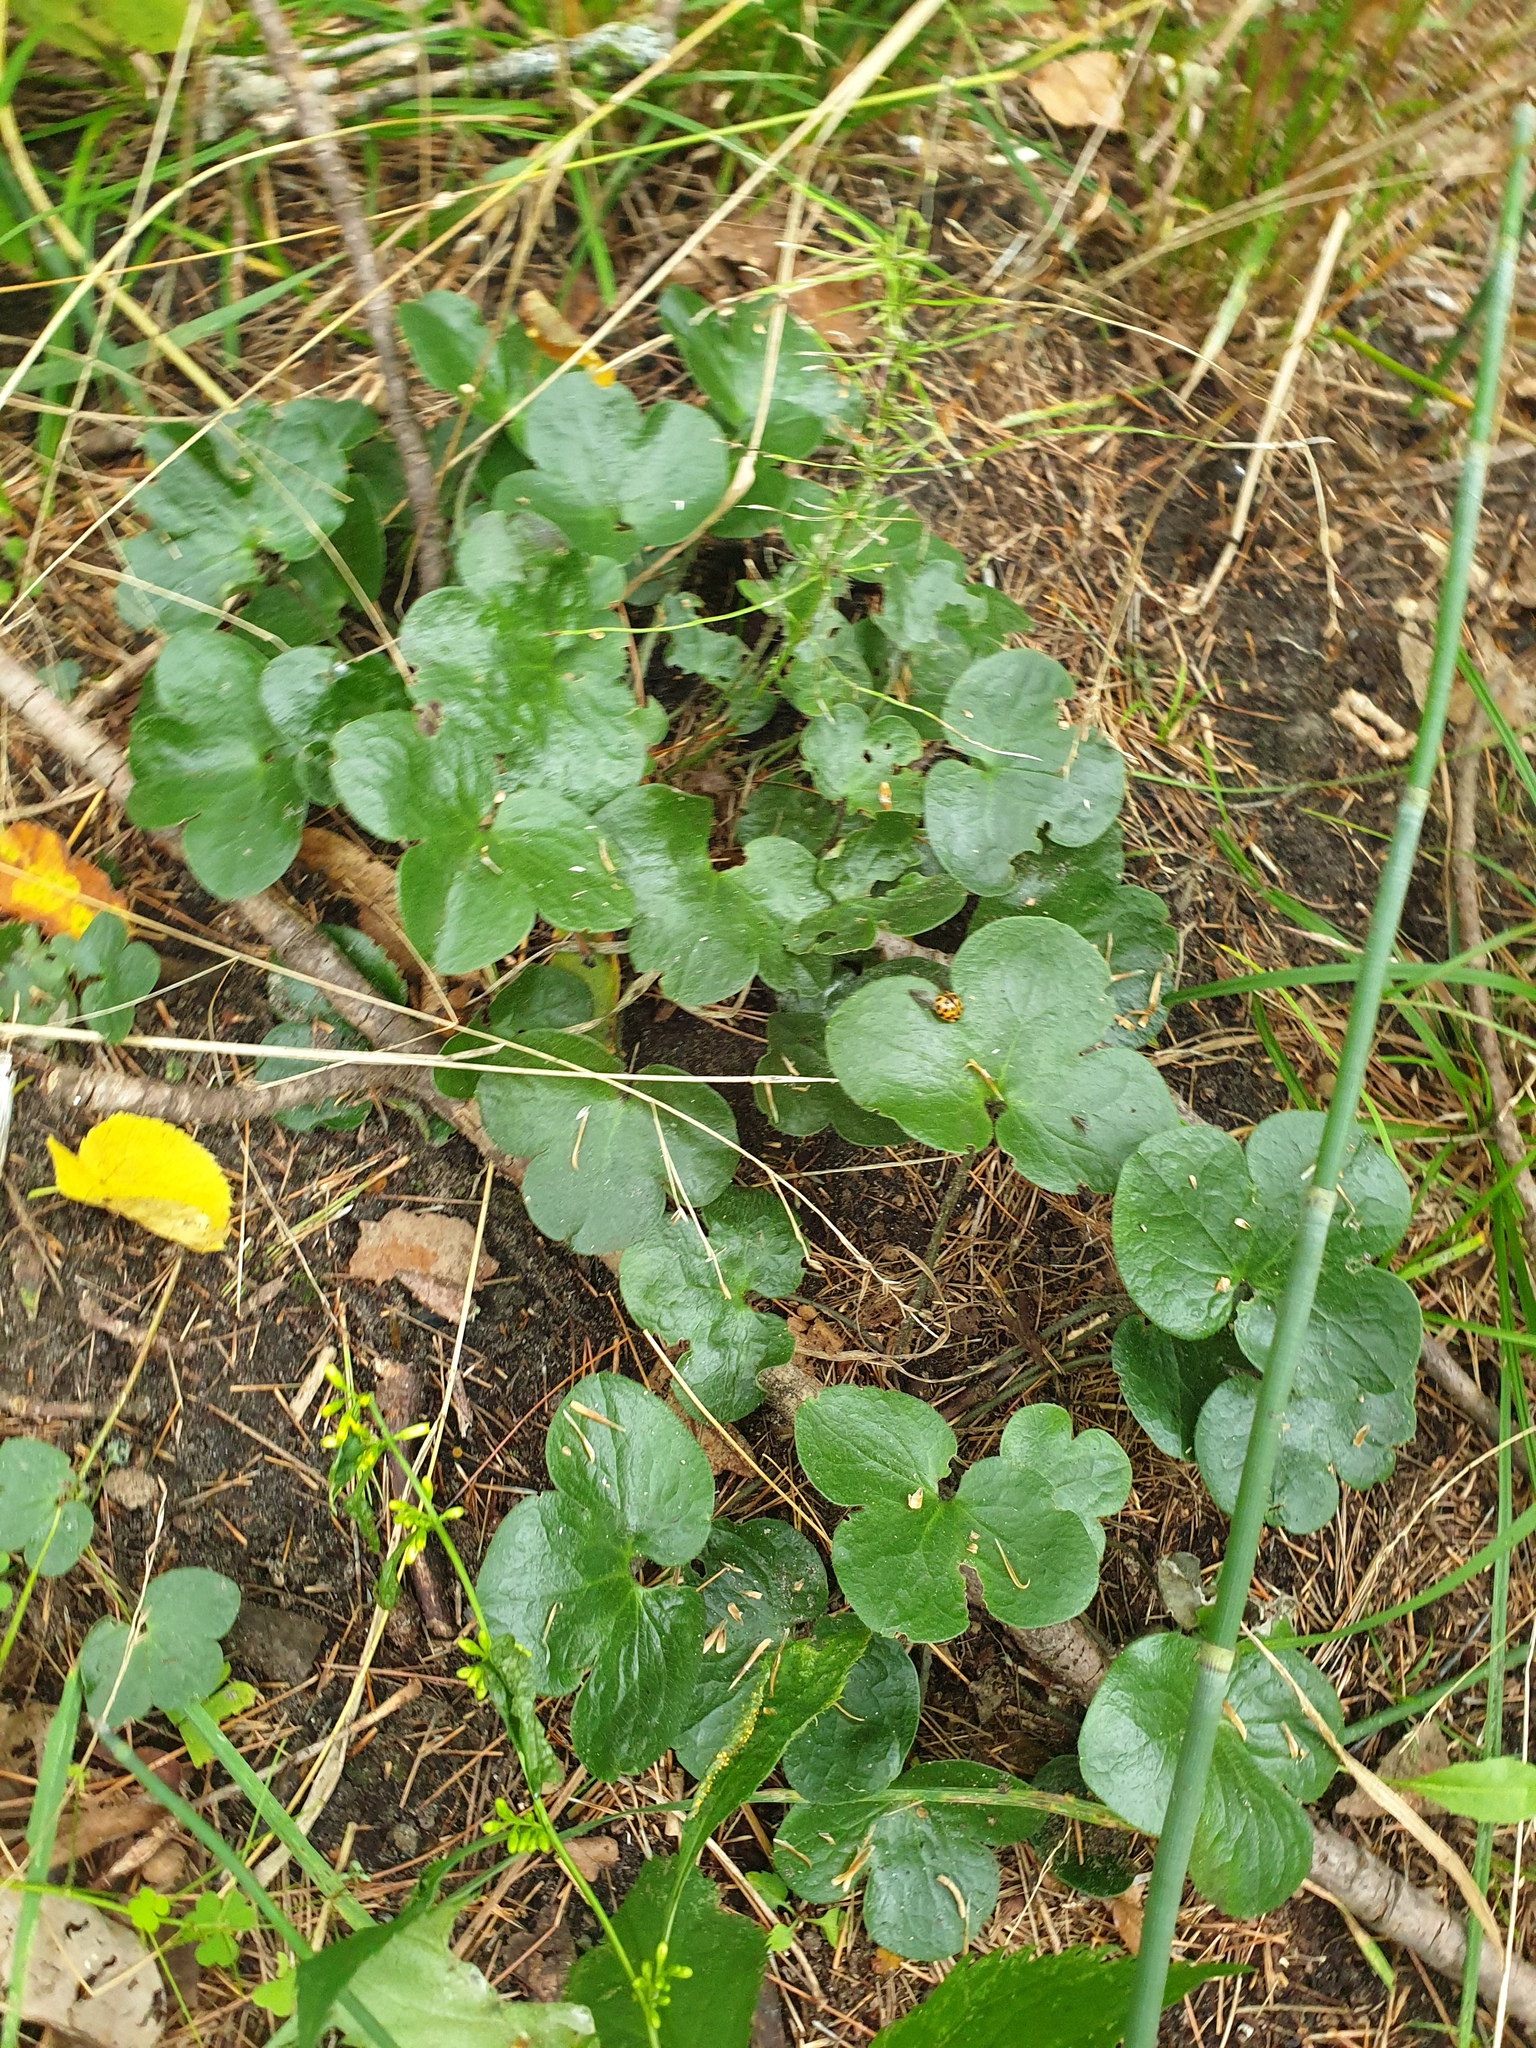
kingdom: Plantae
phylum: Tracheophyta
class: Magnoliopsida
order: Ranunculales
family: Ranunculaceae
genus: Hepatica
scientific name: Hepatica americana
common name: American hepatica
